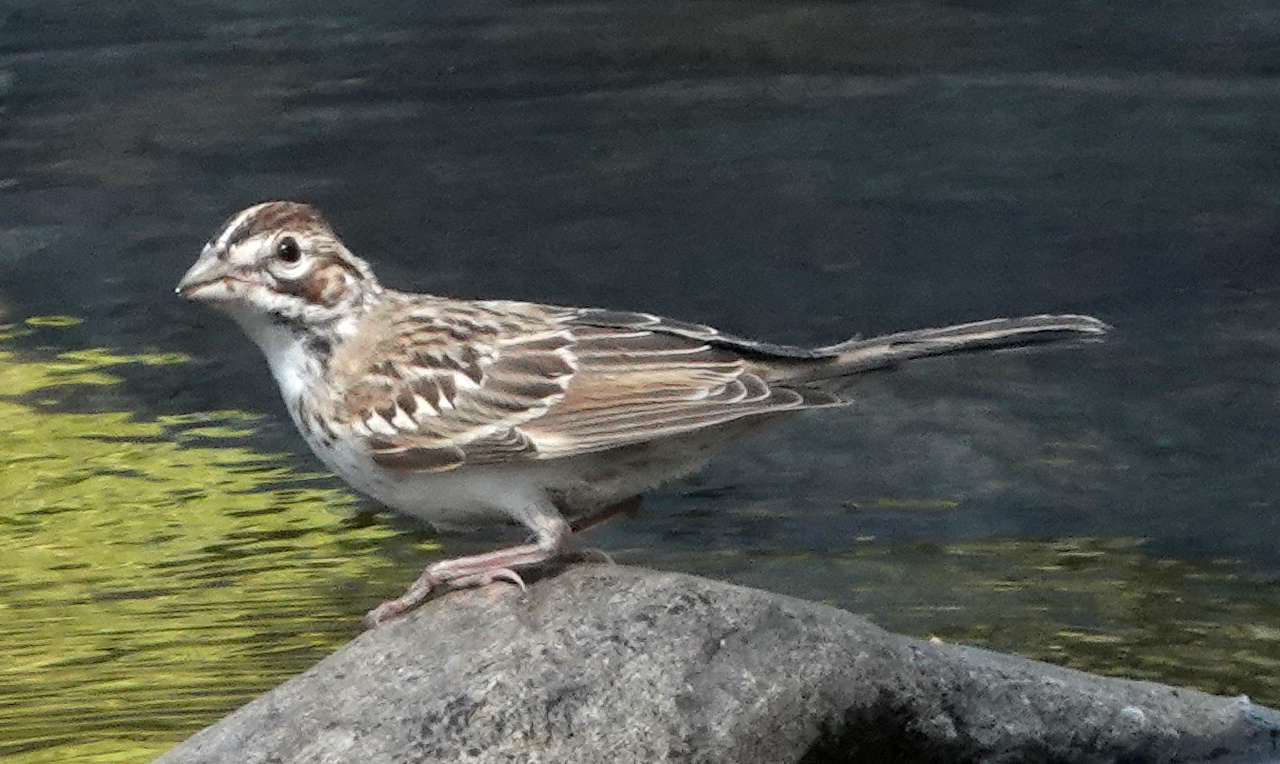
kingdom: Animalia
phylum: Chordata
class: Aves
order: Passeriformes
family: Passerellidae
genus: Chondestes
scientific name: Chondestes grammacus
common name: Lark sparrow
